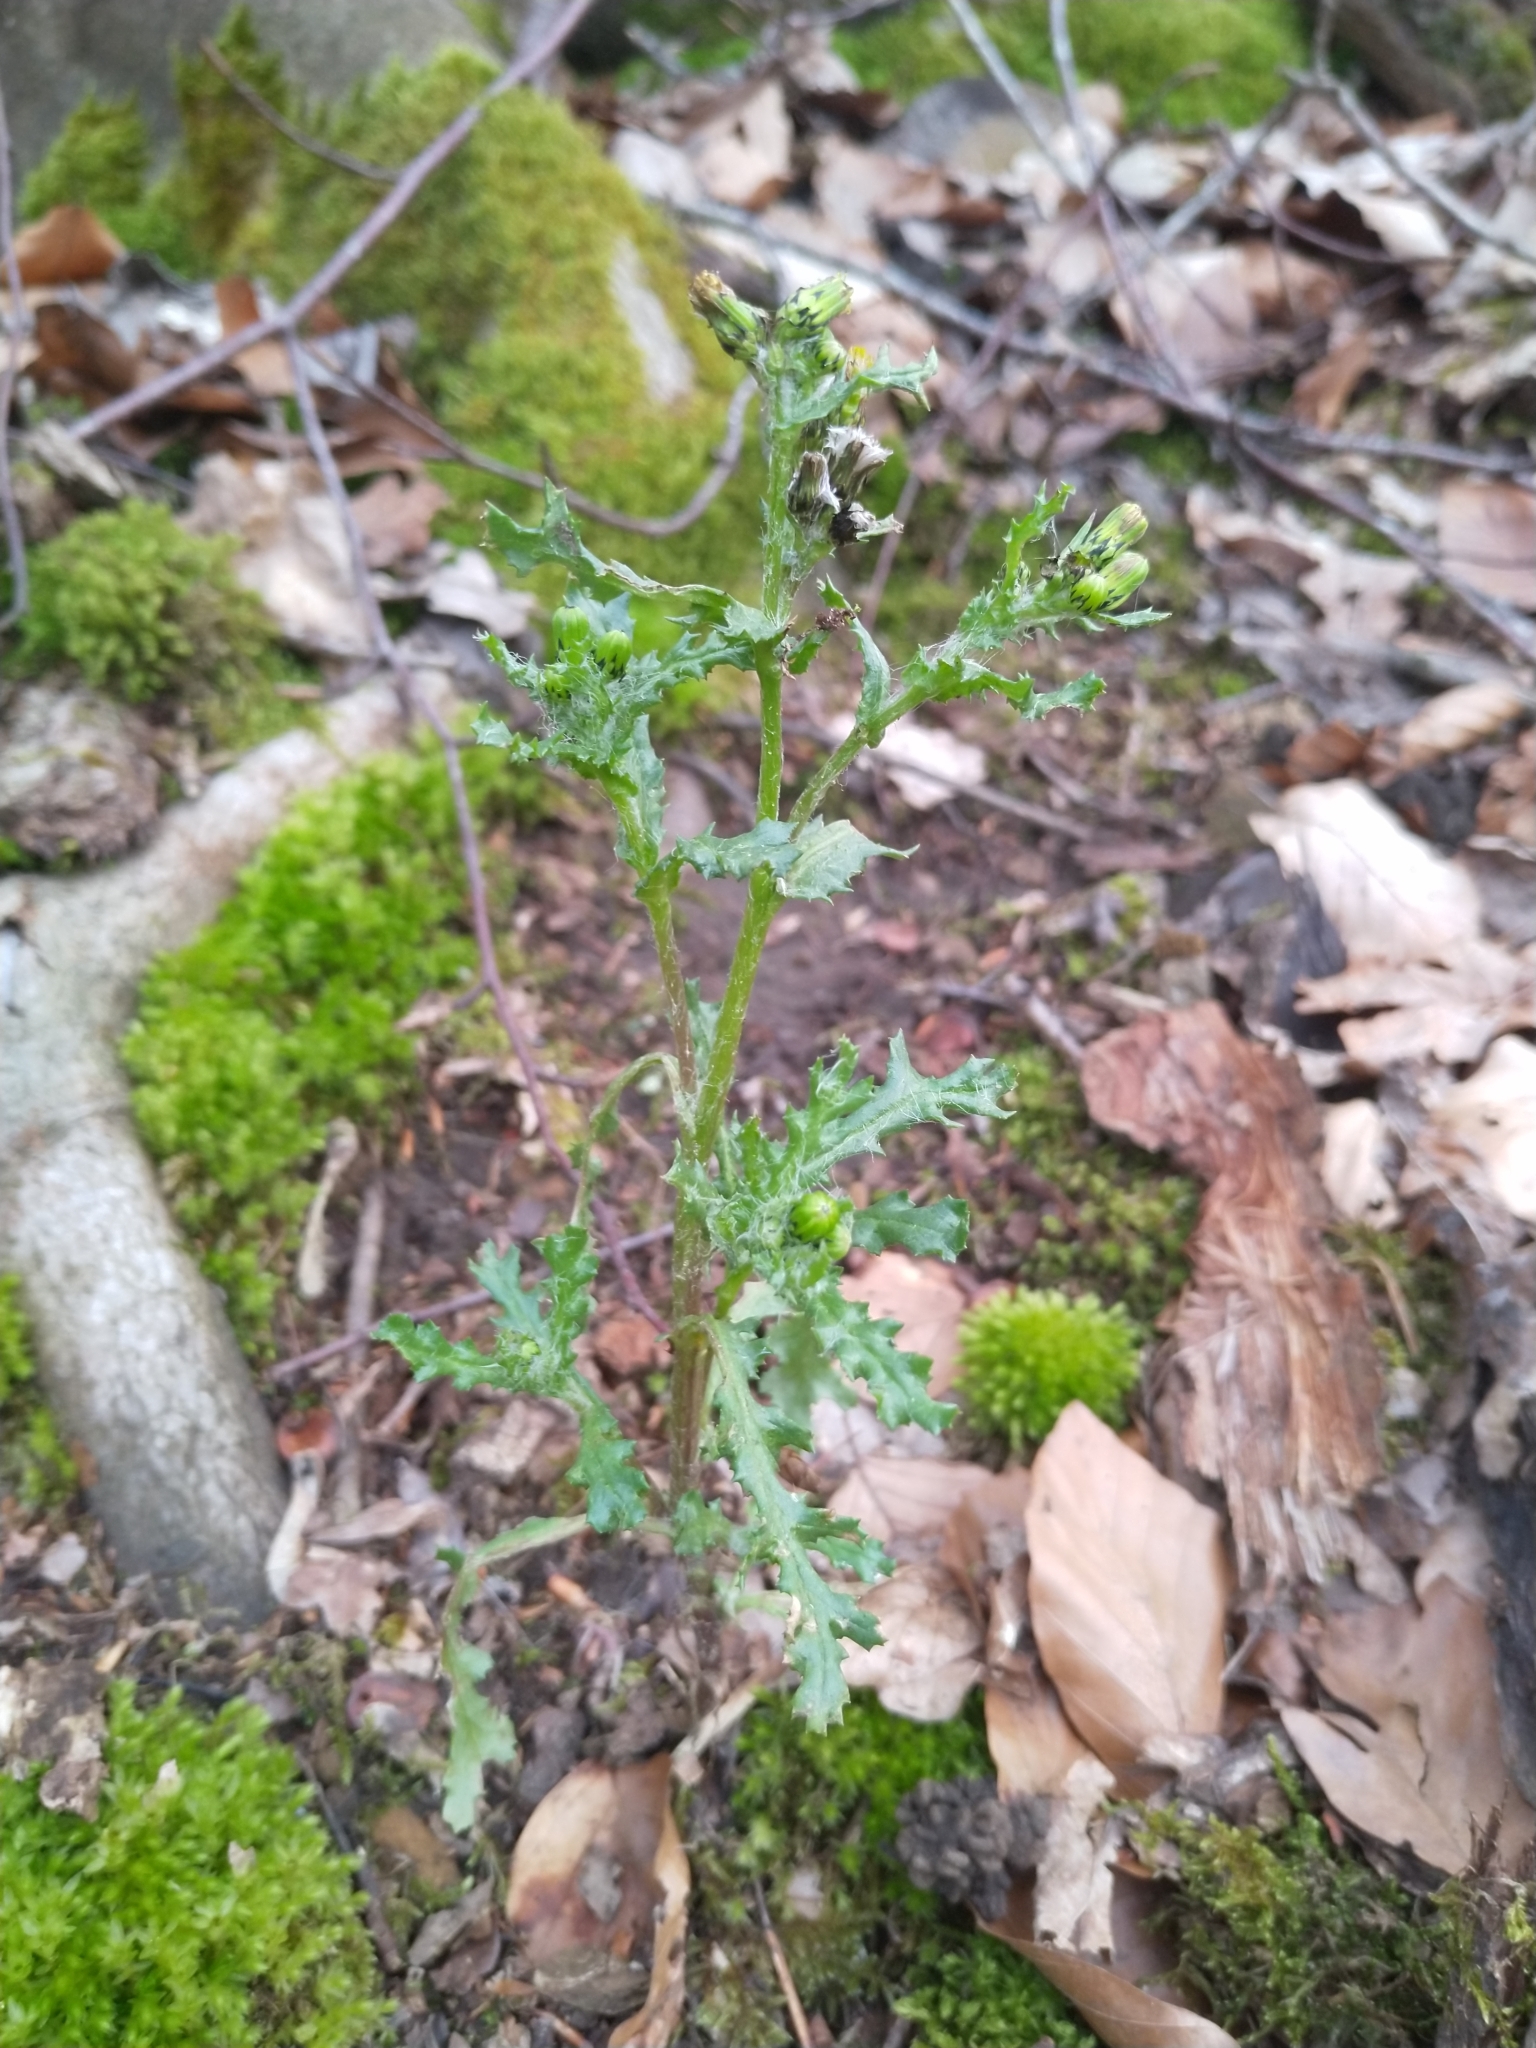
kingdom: Plantae
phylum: Tracheophyta
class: Magnoliopsida
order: Asterales
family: Asteraceae
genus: Senecio
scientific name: Senecio vulgaris
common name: Old-man-in-the-spring
